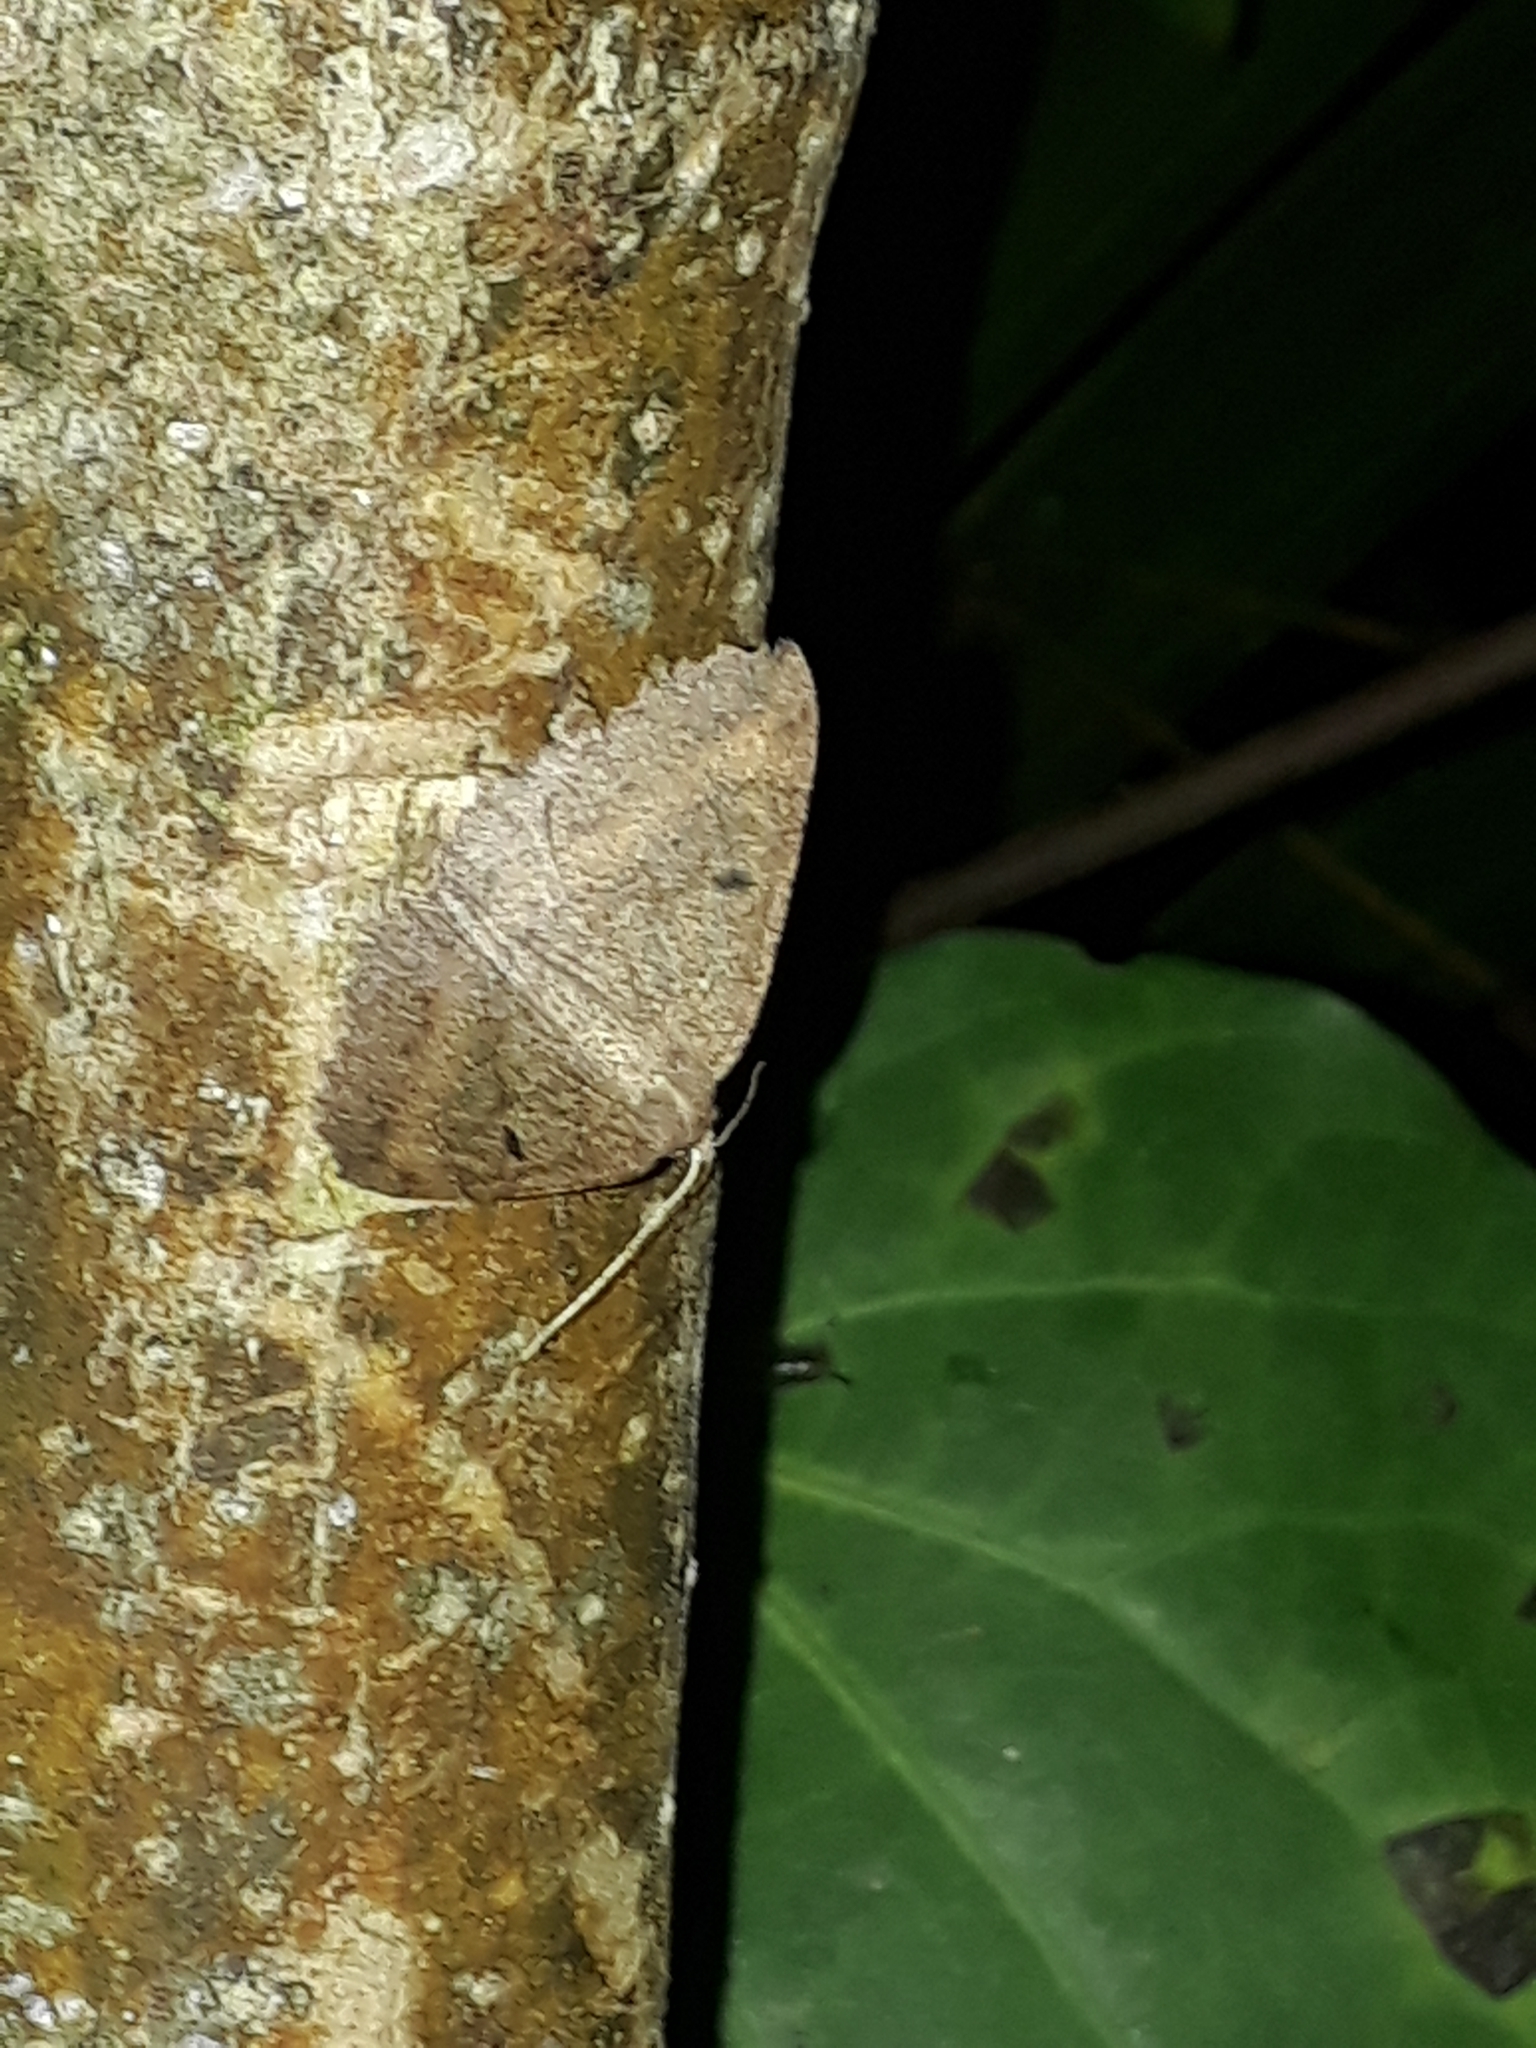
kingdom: Animalia
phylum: Arthropoda
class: Insecta
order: Lepidoptera
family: Geometridae
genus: Cleora
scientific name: Cleora scriptaria
